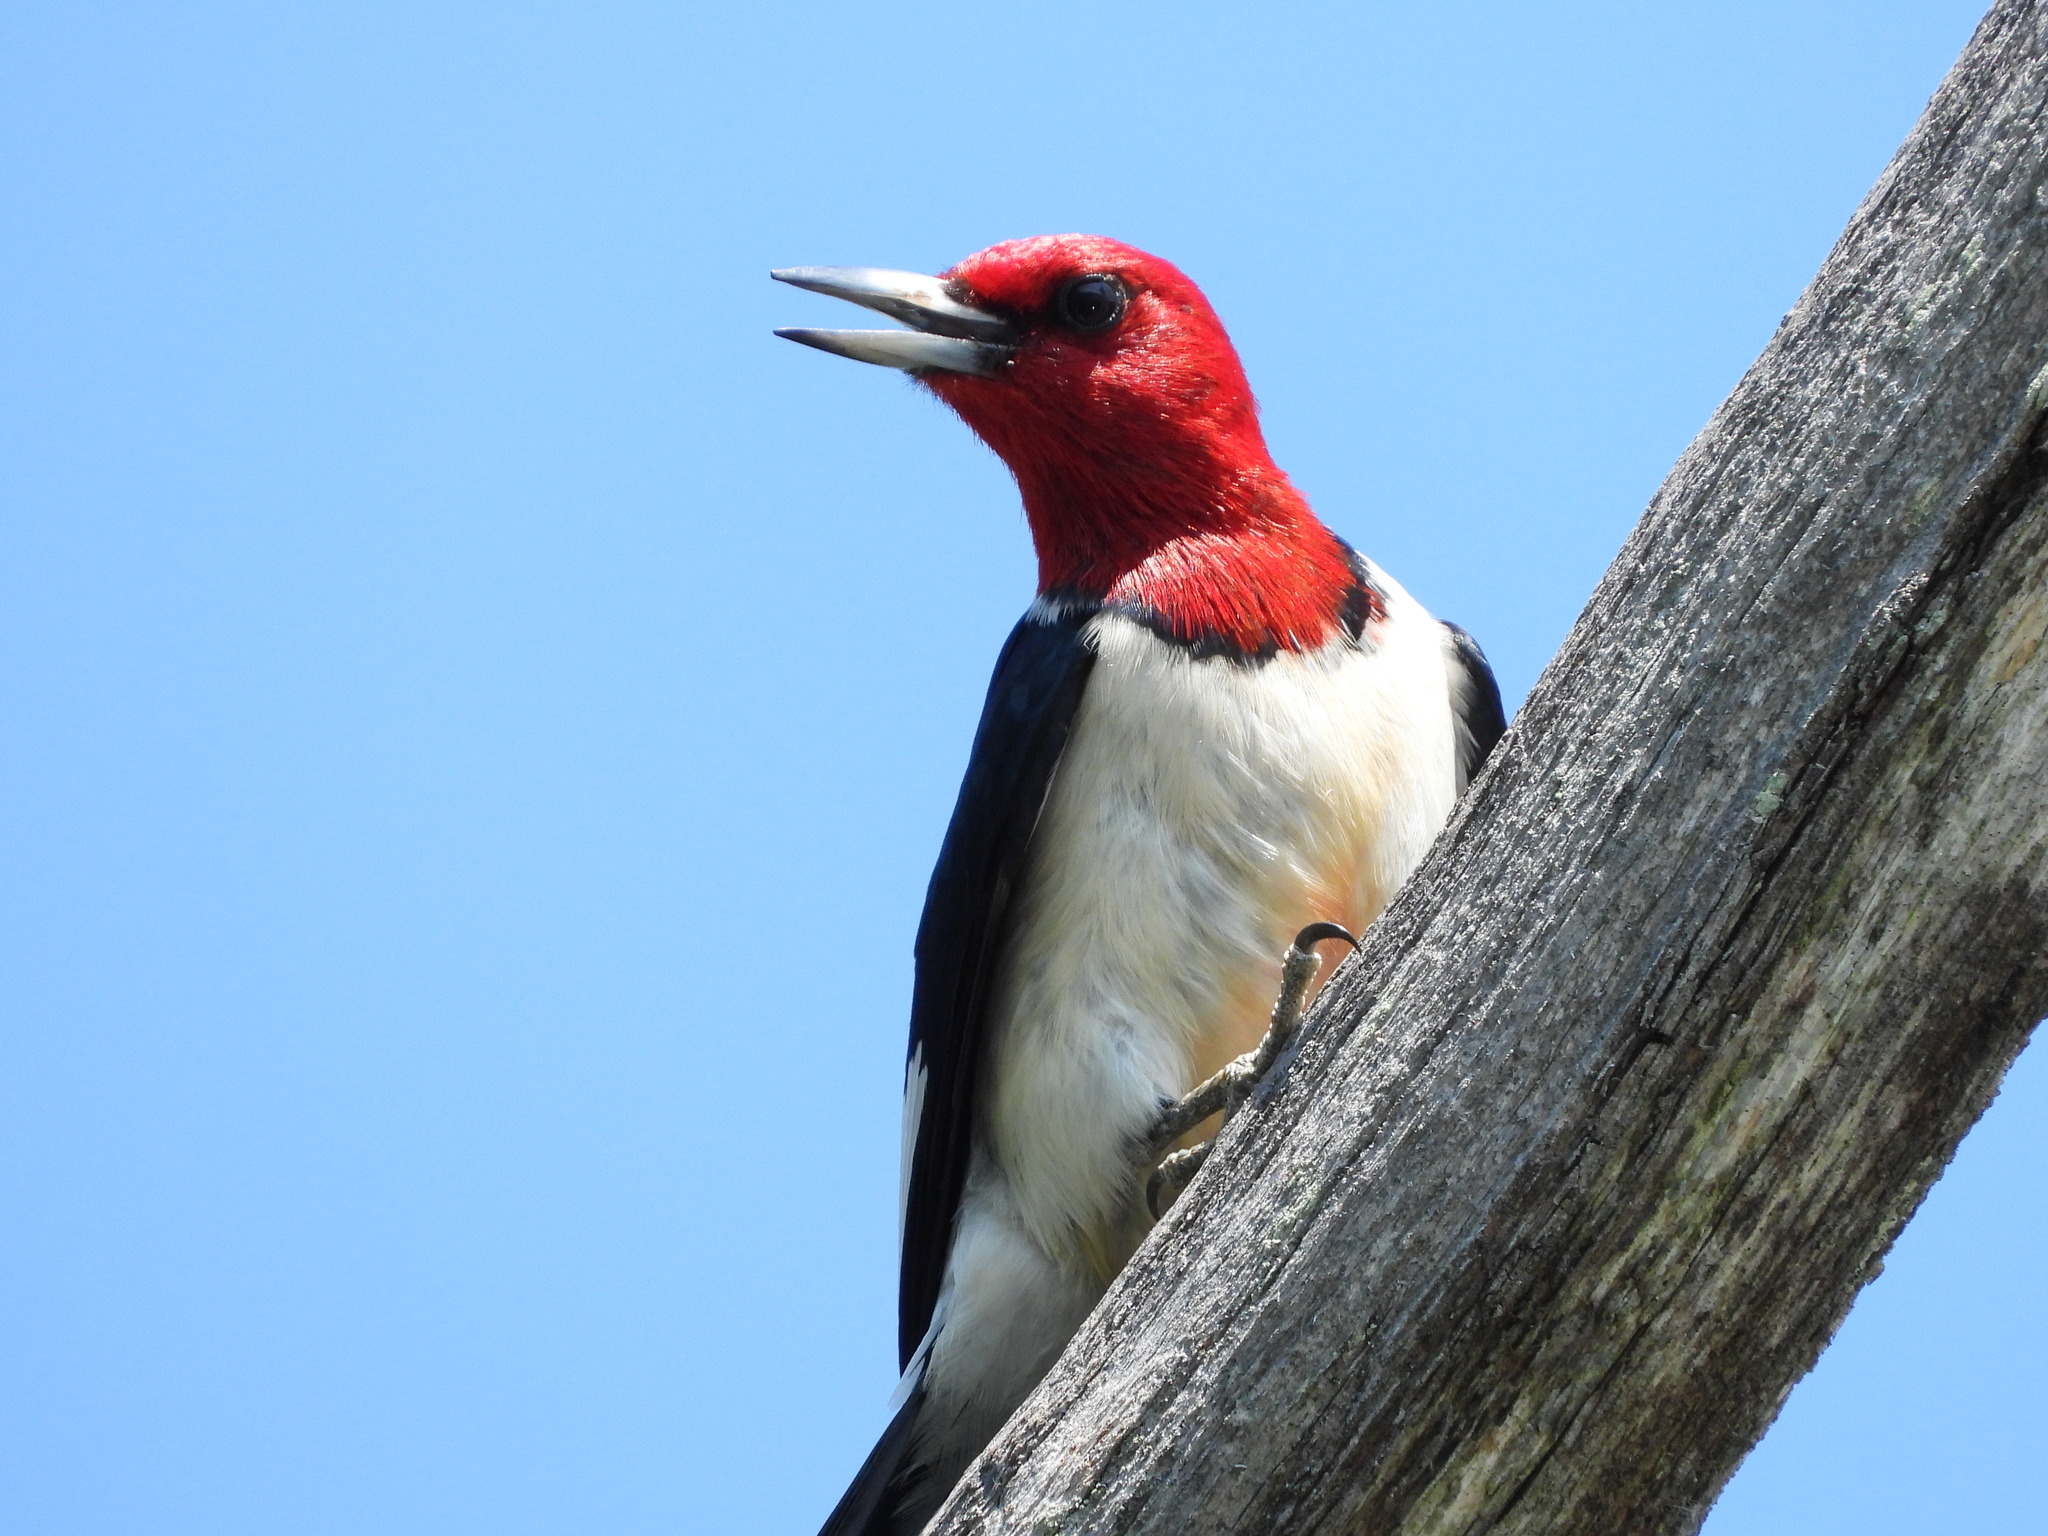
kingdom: Animalia
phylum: Chordata
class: Aves
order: Piciformes
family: Picidae
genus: Melanerpes
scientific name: Melanerpes erythrocephalus
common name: Red-headed woodpecker
